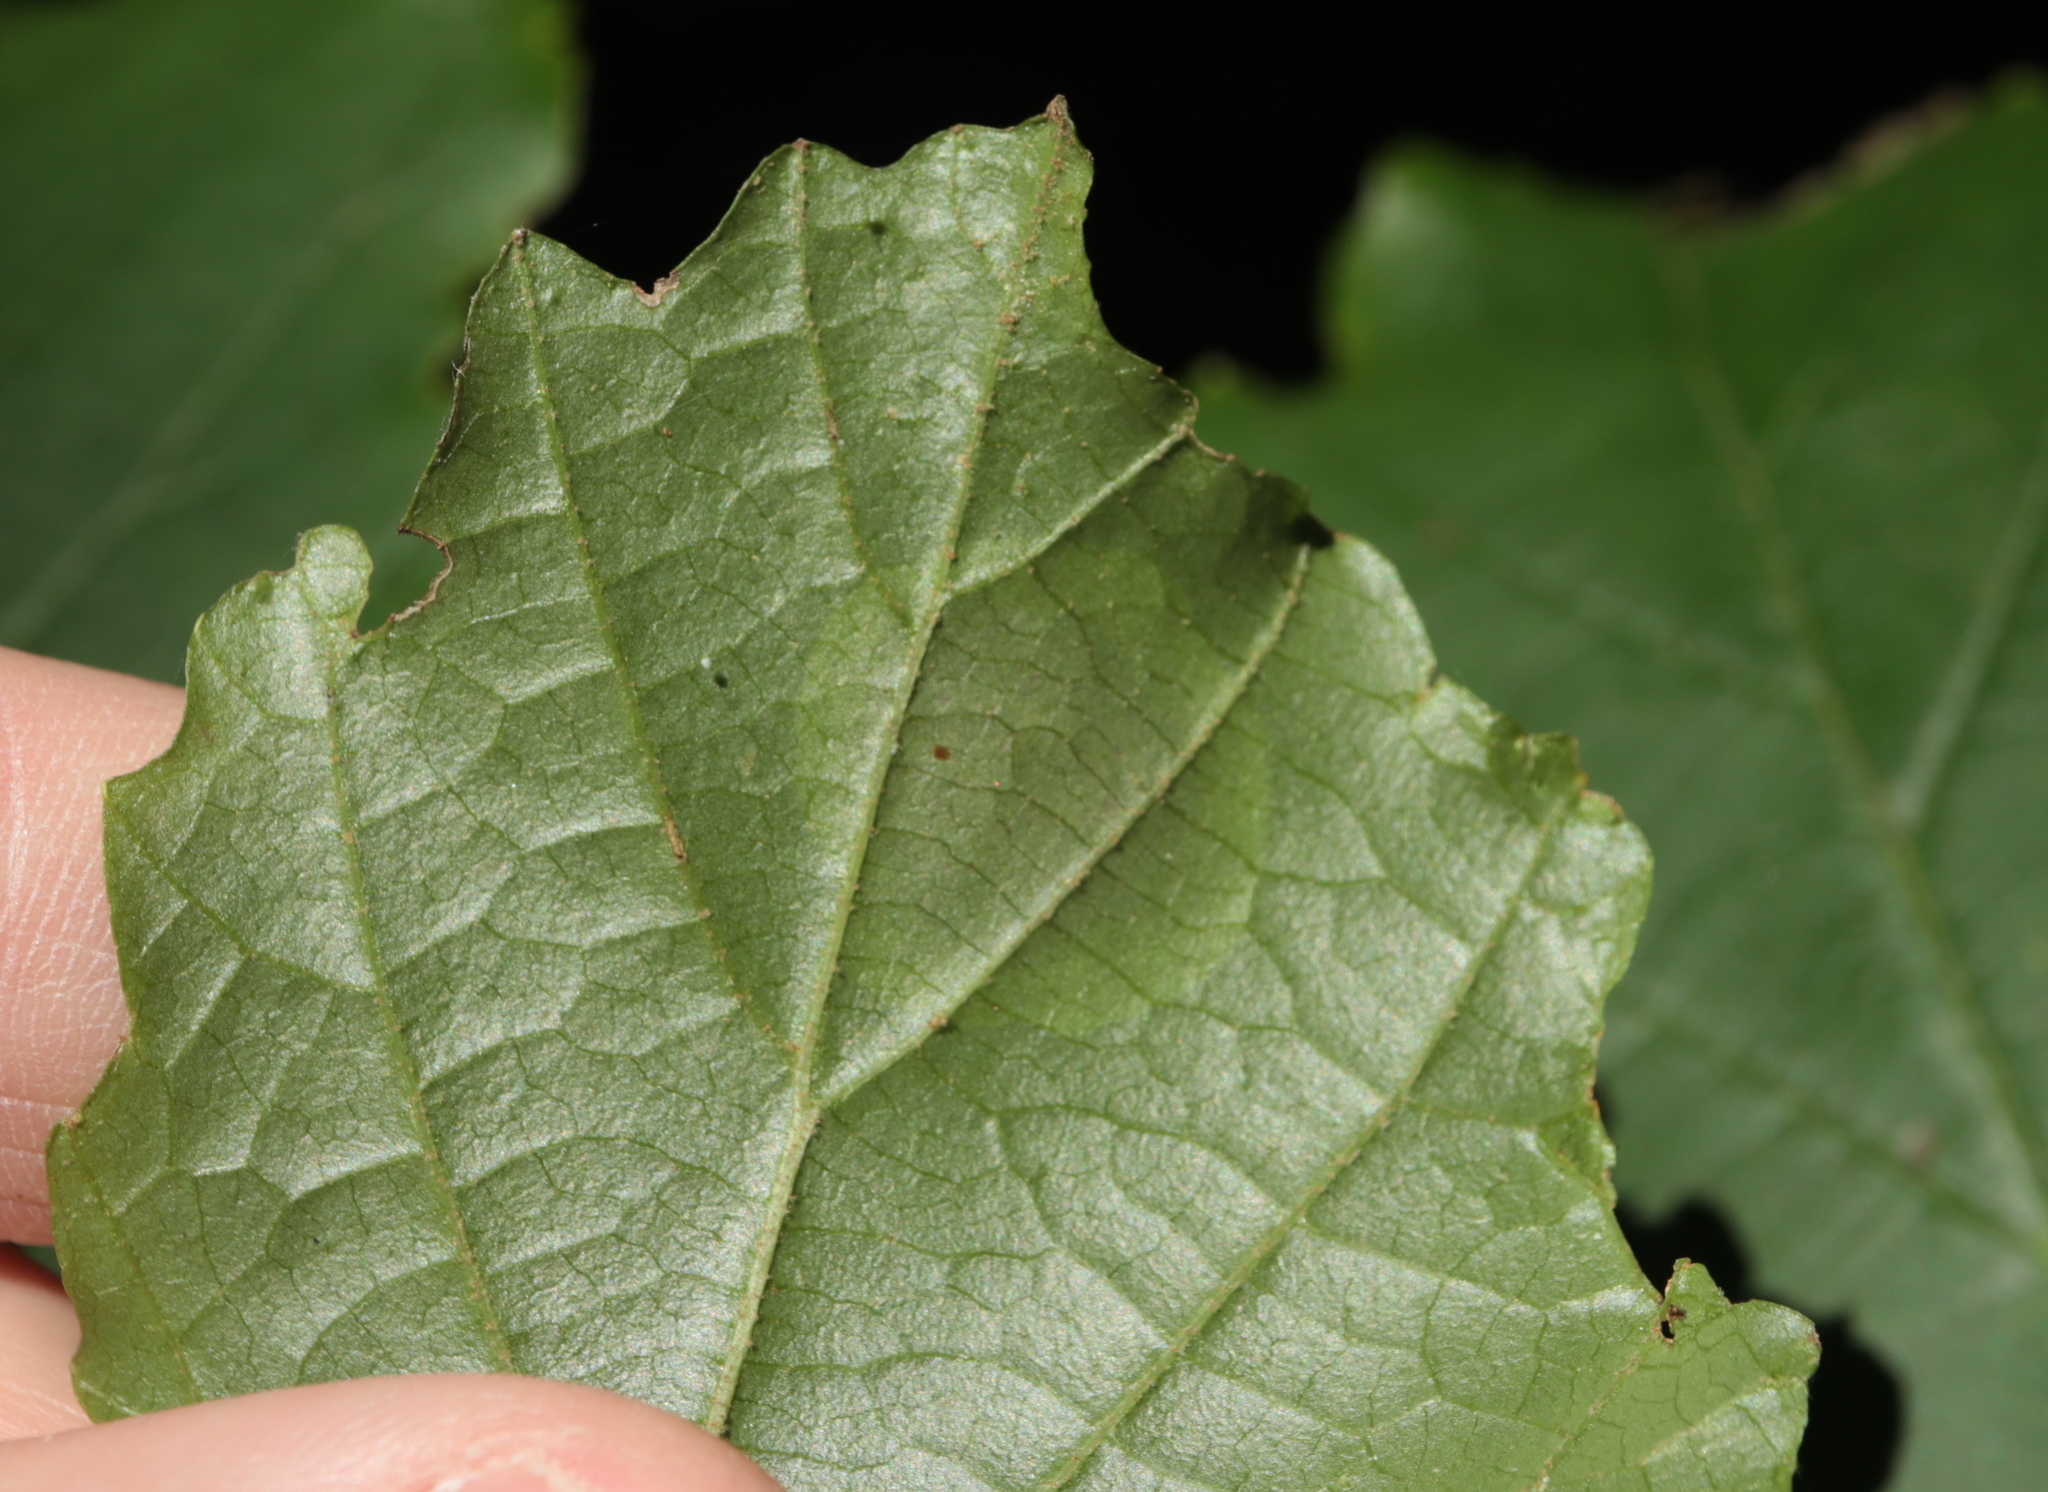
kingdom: Animalia
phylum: Arthropoda
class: Insecta
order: Lepidoptera
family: Gracillariidae
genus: Cameraria
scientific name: Cameraria hamameliella
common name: Witchhazel leafminer
